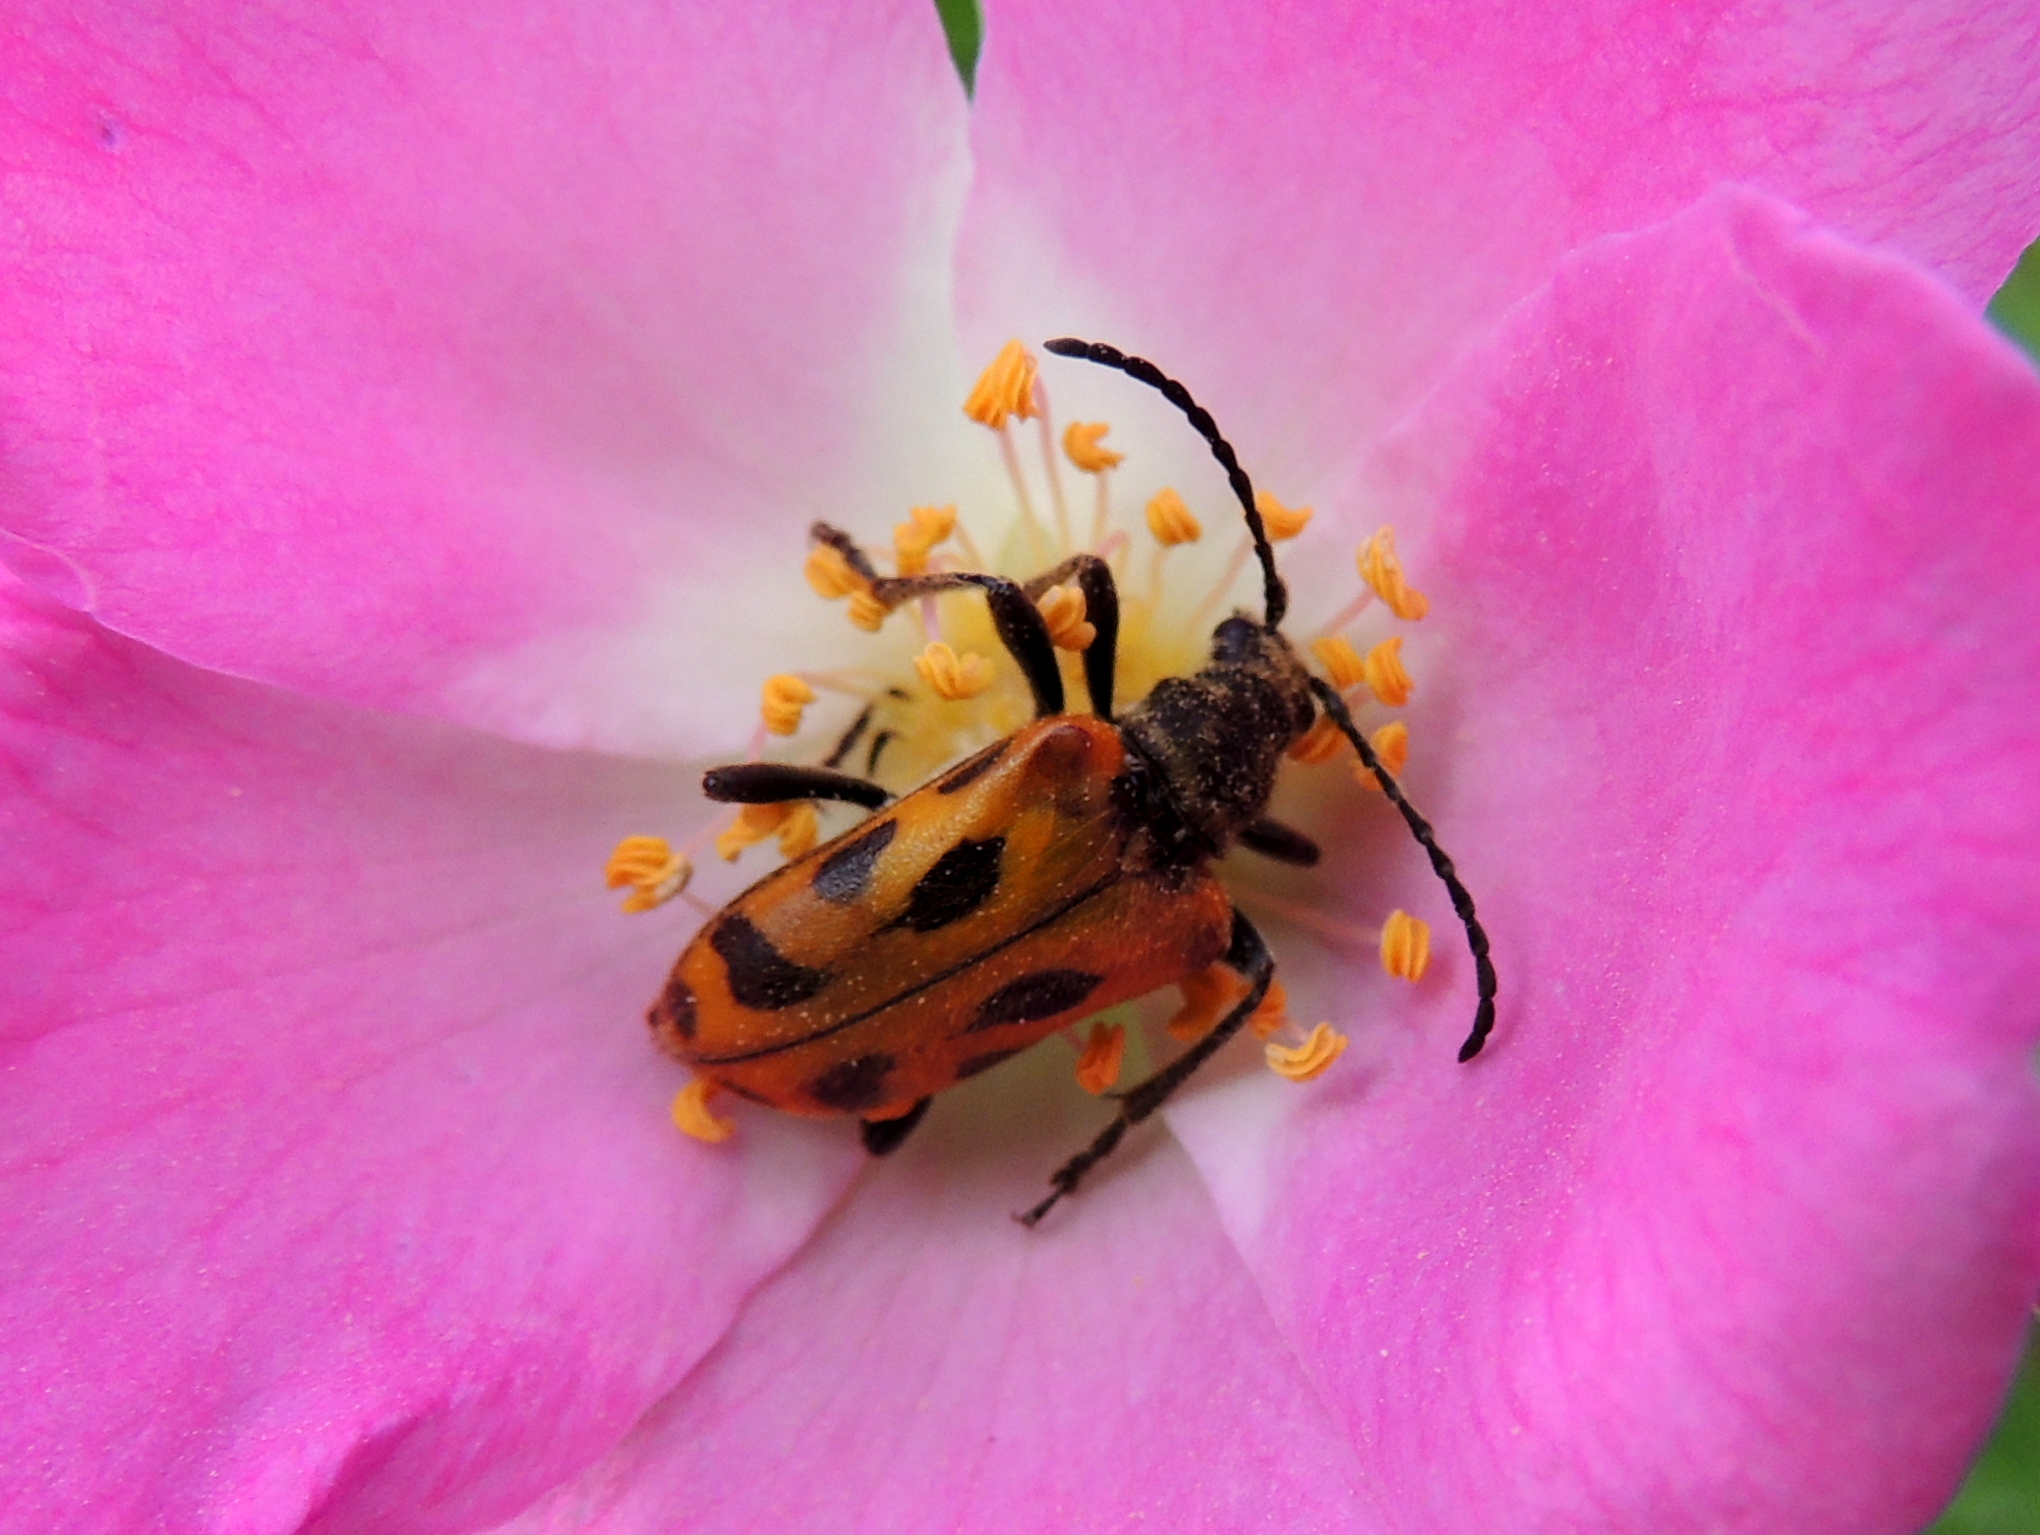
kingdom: Animalia
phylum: Arthropoda
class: Insecta
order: Coleoptera
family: Cerambycidae
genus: Brachyta
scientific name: Brachyta interrogationis
